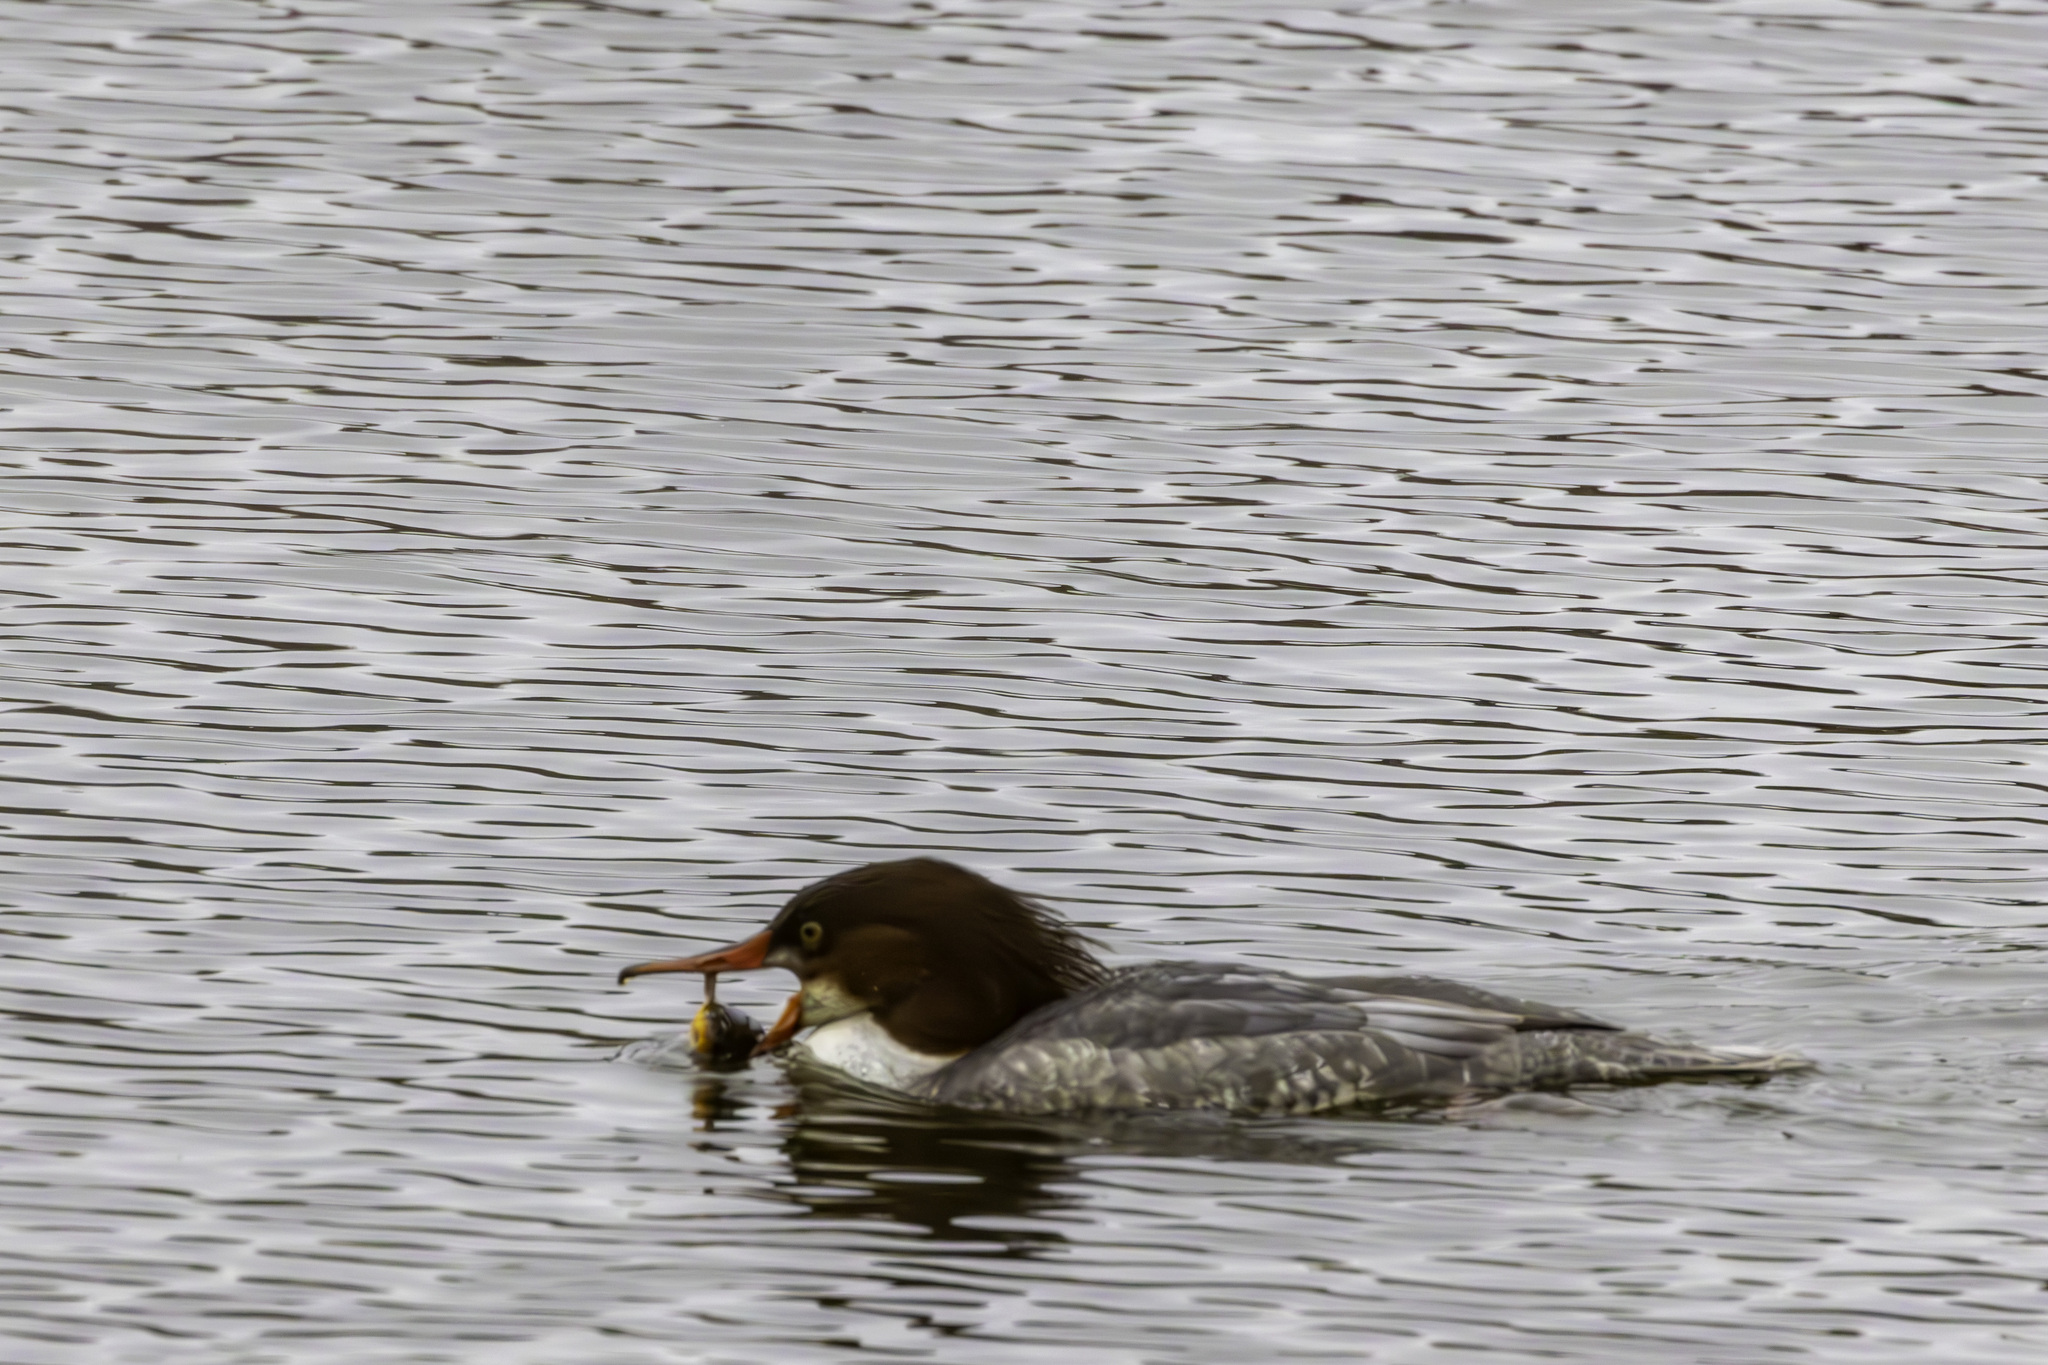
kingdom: Animalia
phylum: Chordata
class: Aves
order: Anseriformes
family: Anatidae
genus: Mergus
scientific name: Mergus merganser
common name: Common merganser
